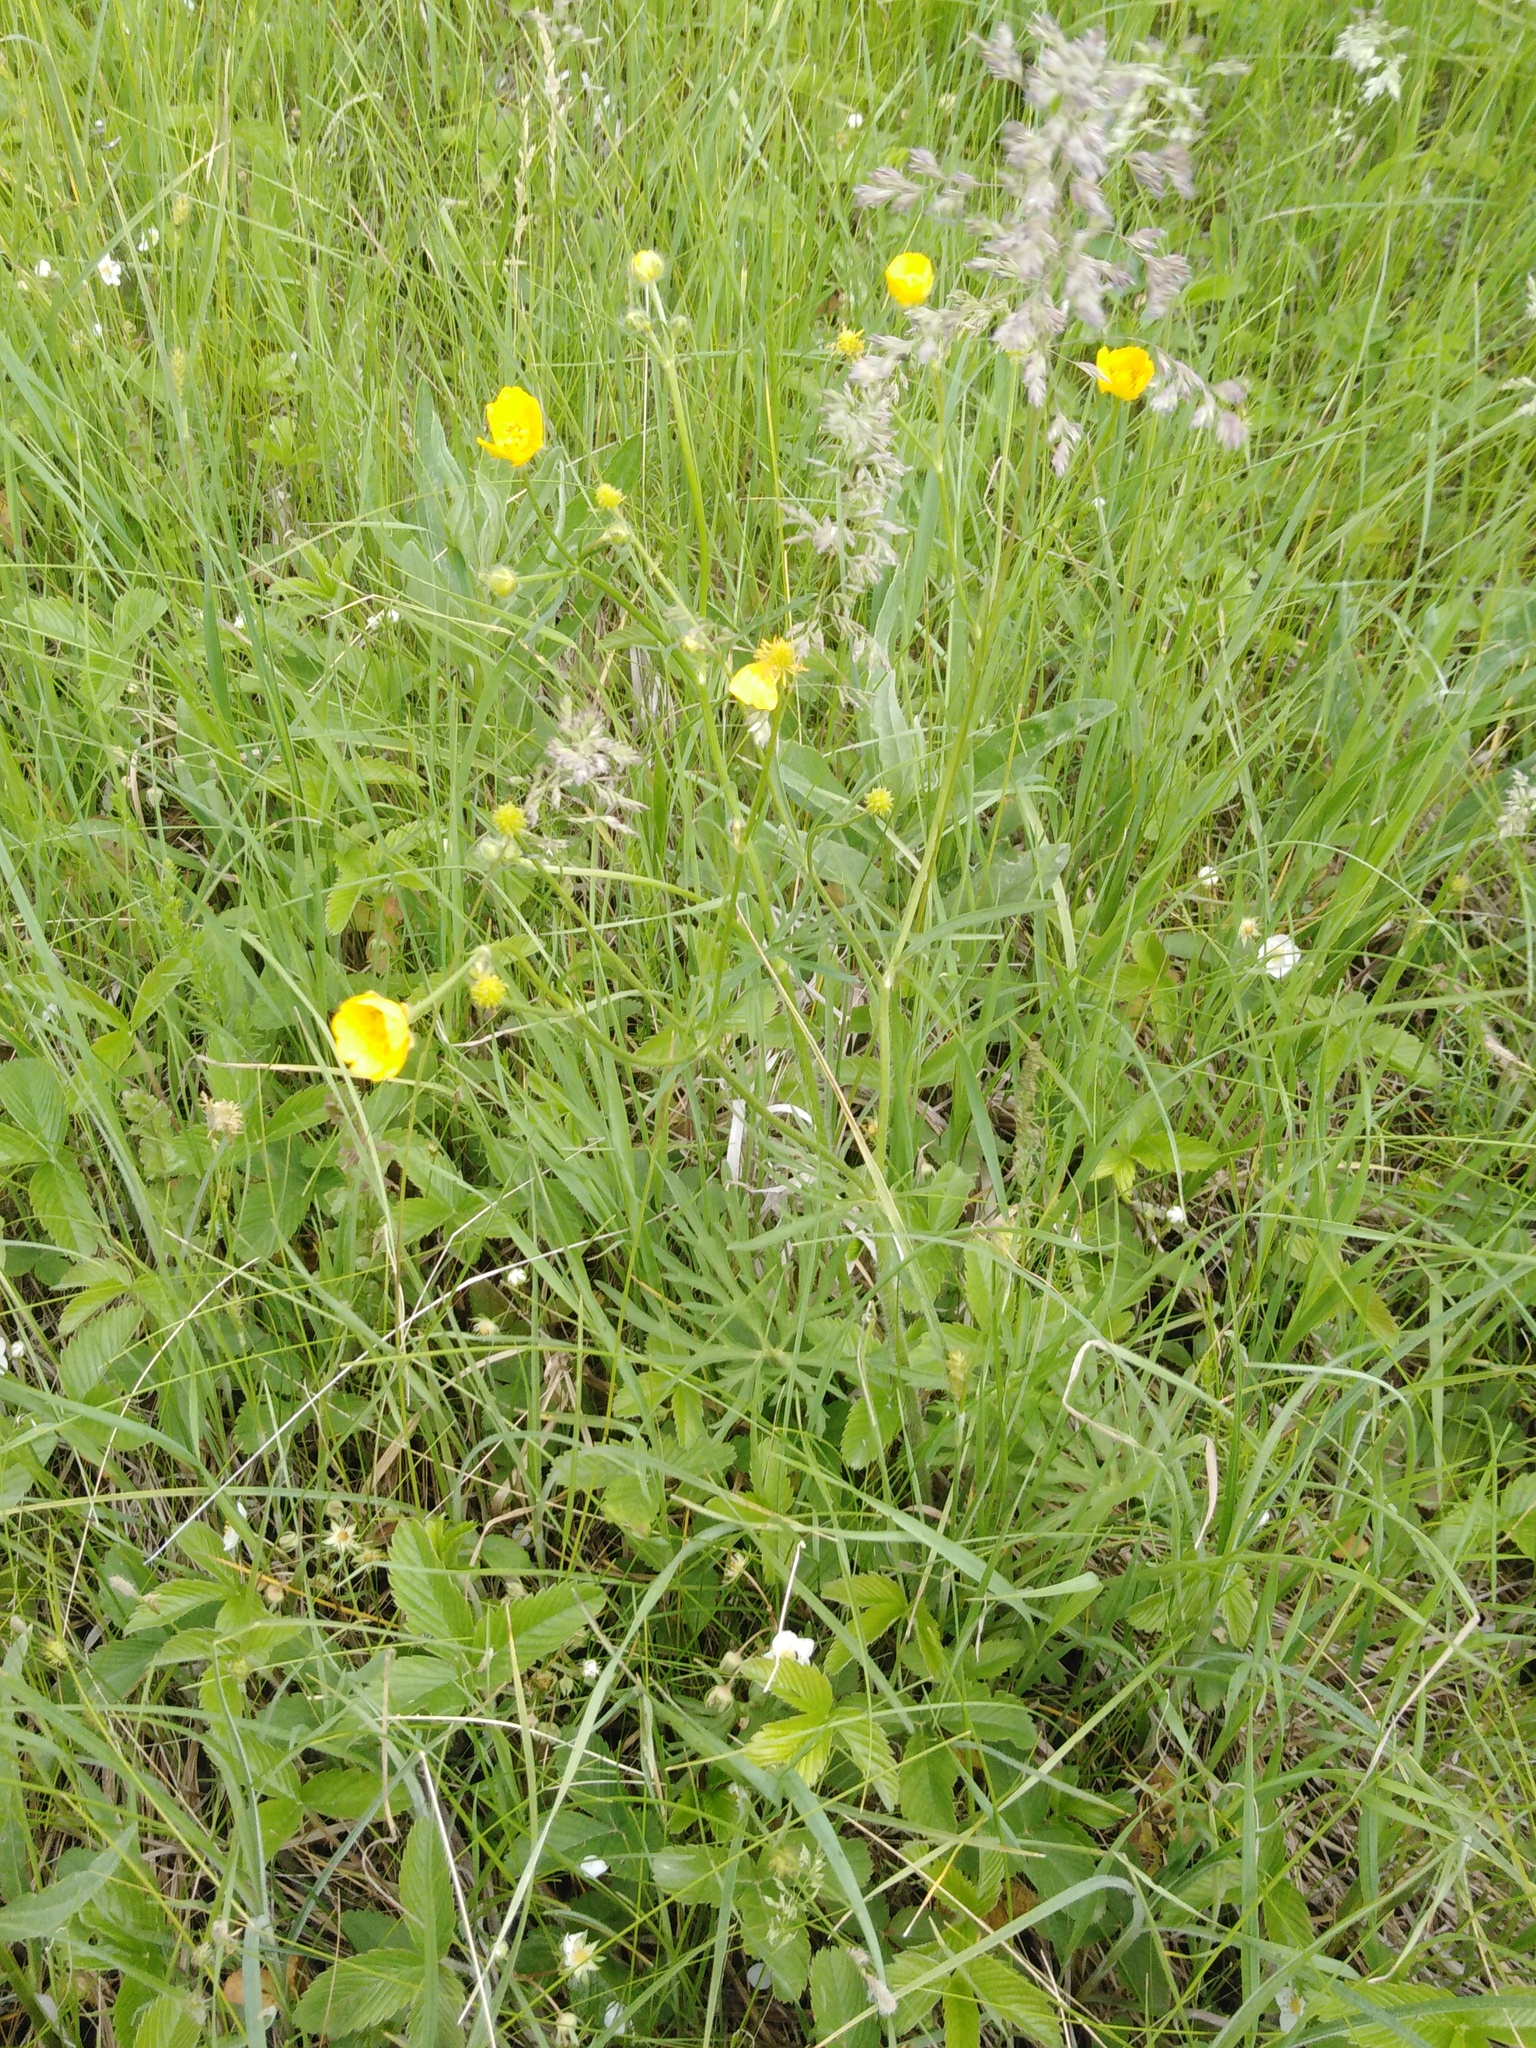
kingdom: Plantae
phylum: Tracheophyta
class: Magnoliopsida
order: Ranunculales
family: Ranunculaceae
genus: Ranunculus
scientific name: Ranunculus polyanthemos
